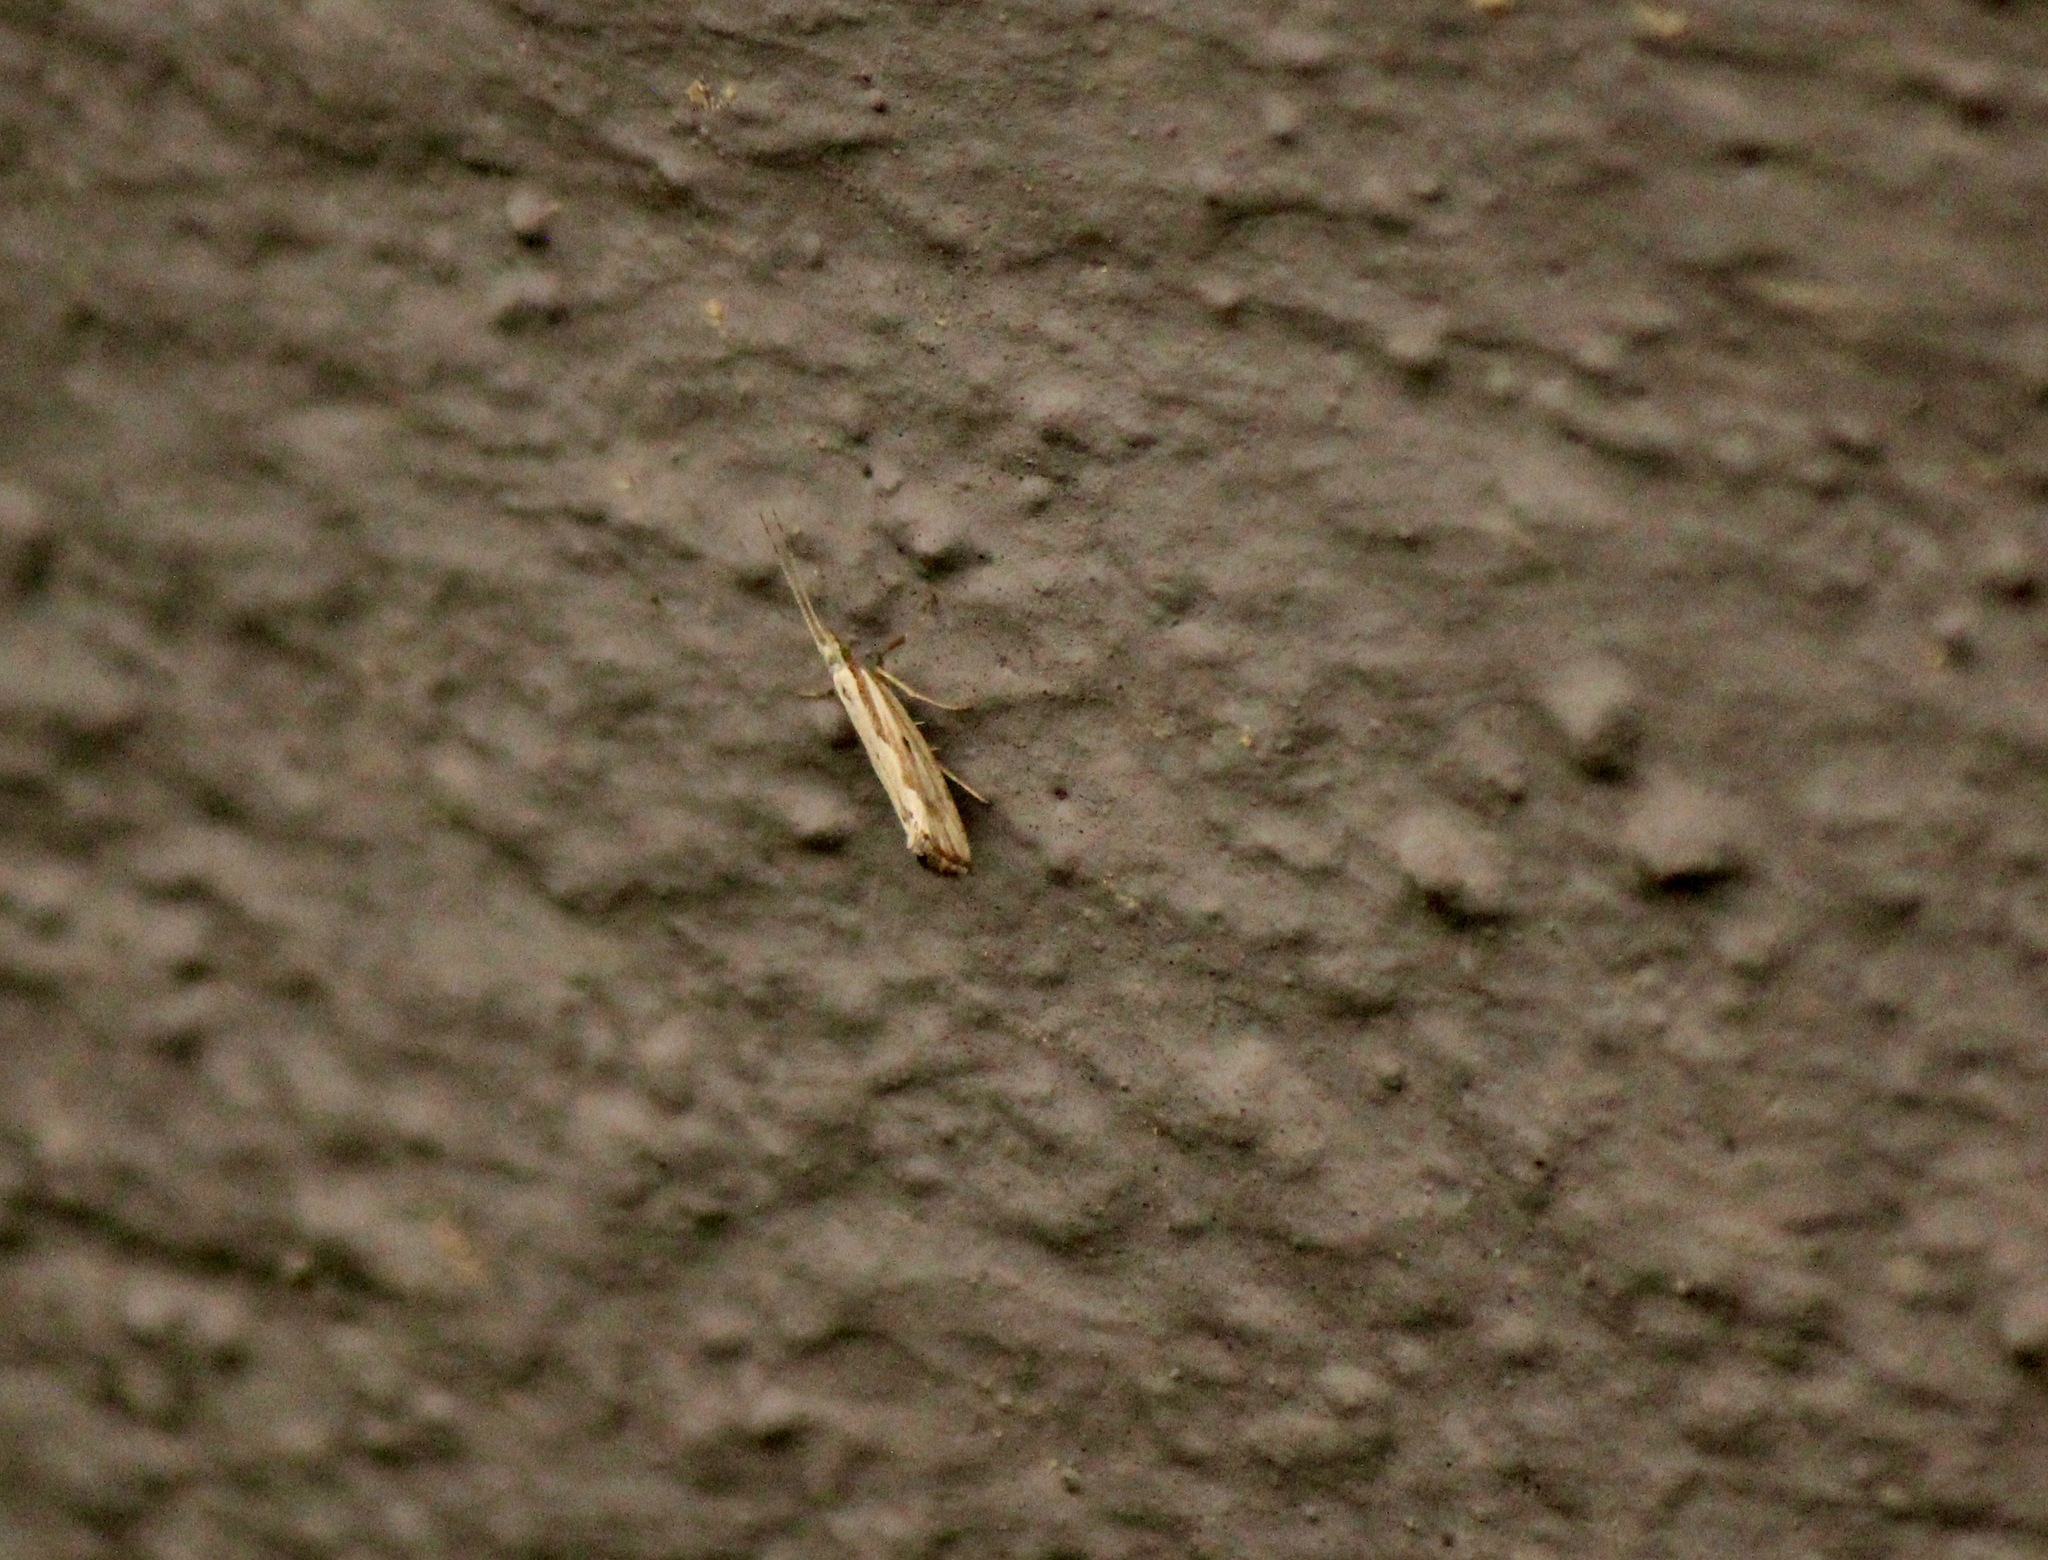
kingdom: Animalia
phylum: Arthropoda
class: Insecta
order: Lepidoptera
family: Plutellidae
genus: Plutella
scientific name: Plutella porrectella
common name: Dame's rocket moth
